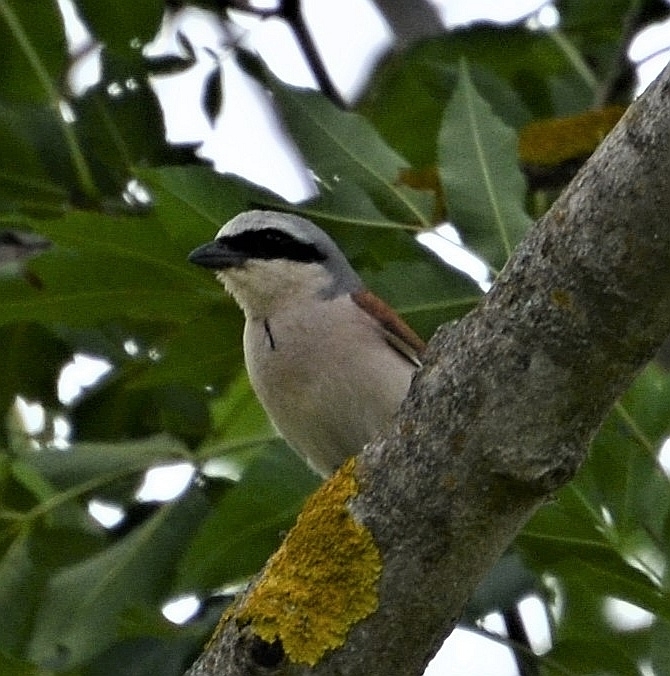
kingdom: Animalia
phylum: Chordata
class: Aves
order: Passeriformes
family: Laniidae
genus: Lanius
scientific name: Lanius collurio
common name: Red-backed shrike
